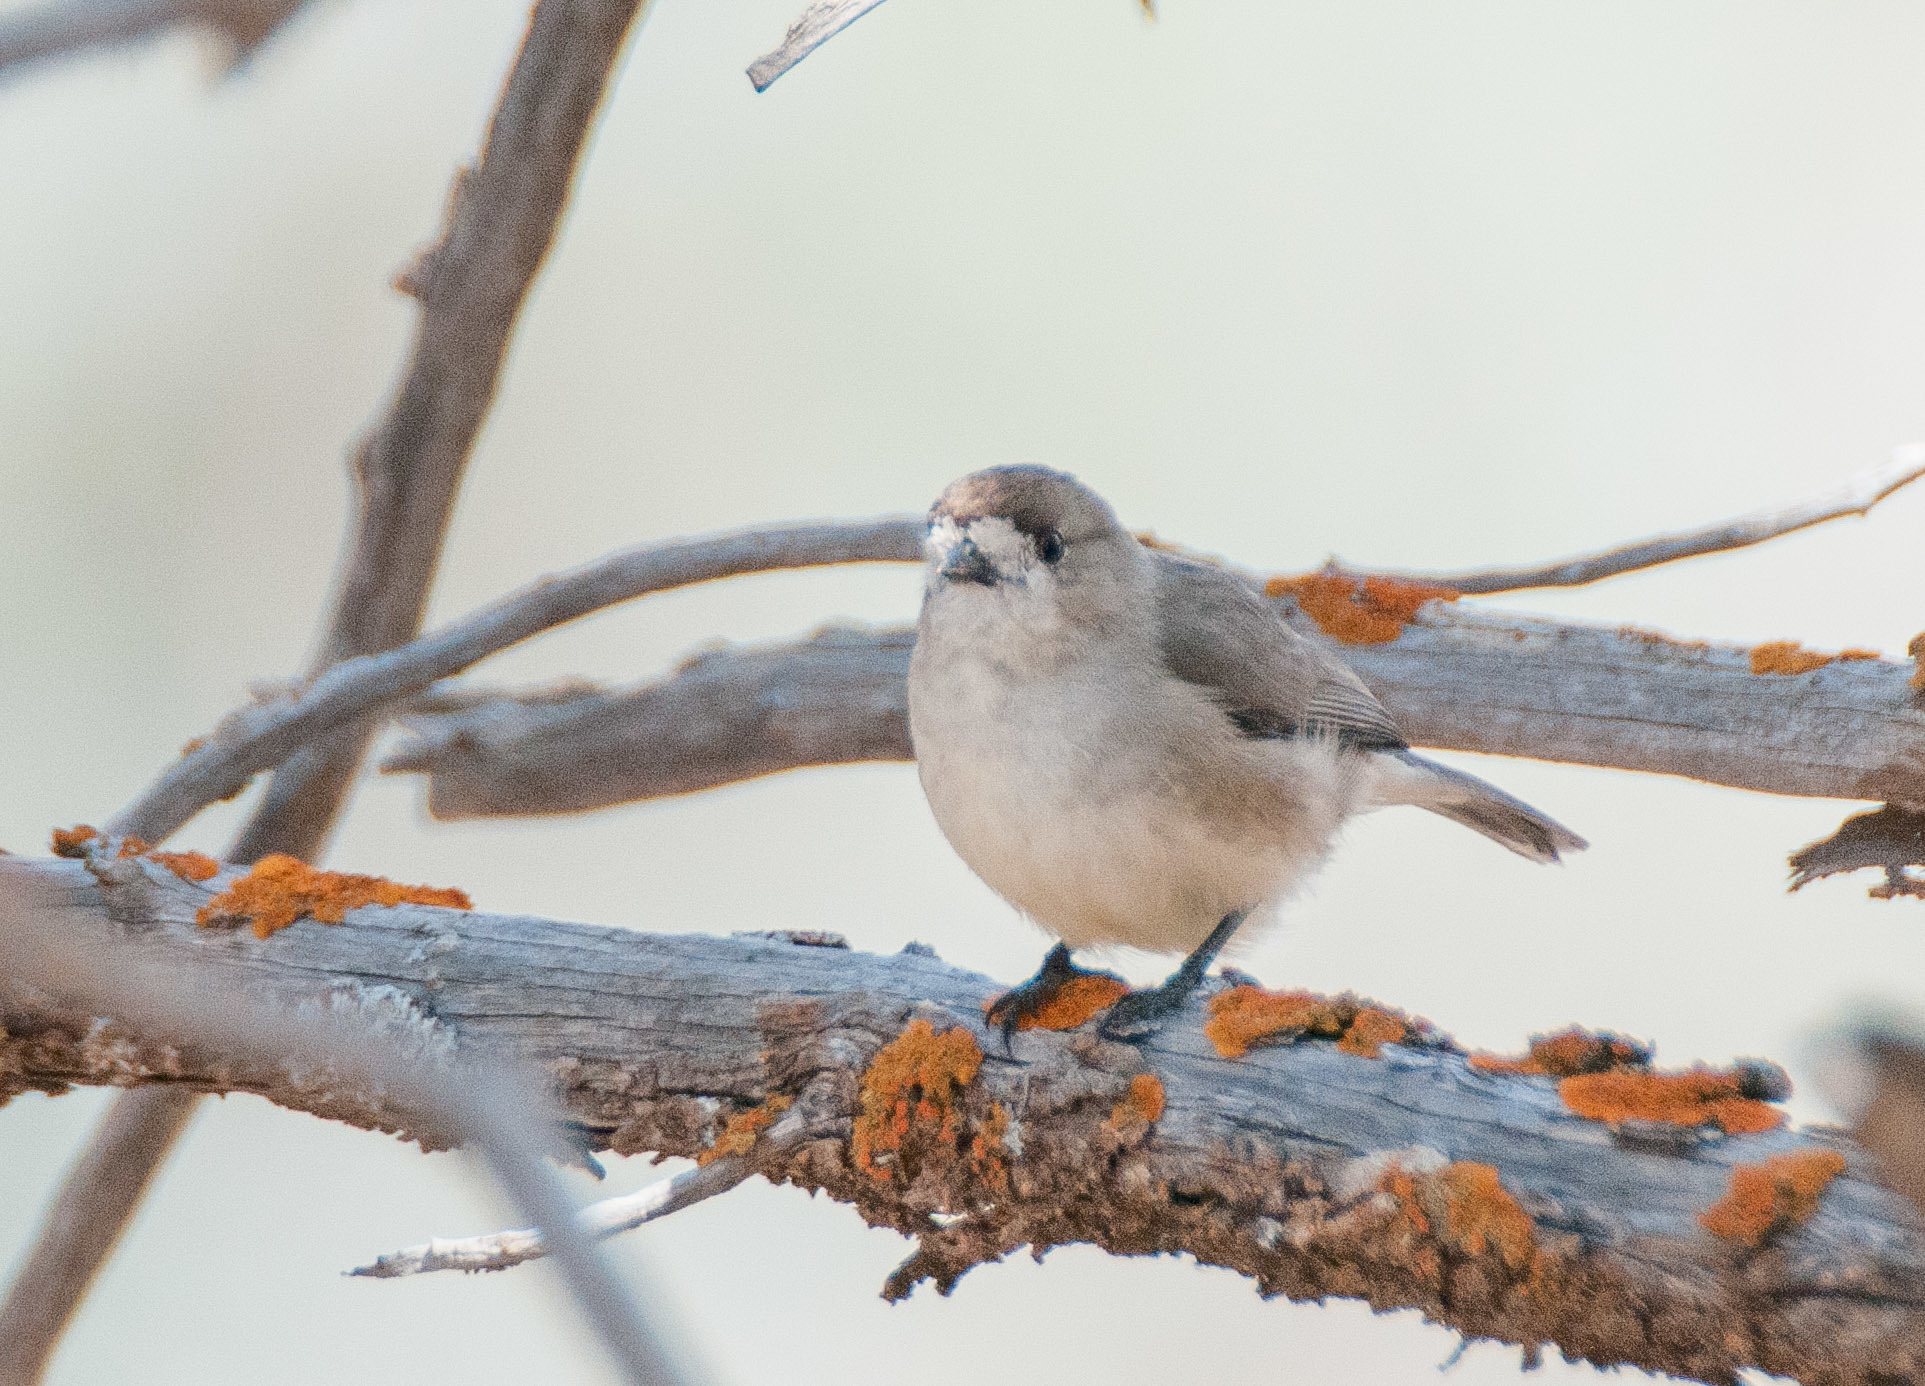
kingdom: Animalia
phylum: Chordata
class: Aves
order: Passeriformes
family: Acanthizidae
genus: Aphelocephala
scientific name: Aphelocephala leucopsis
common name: Southern whiteface
